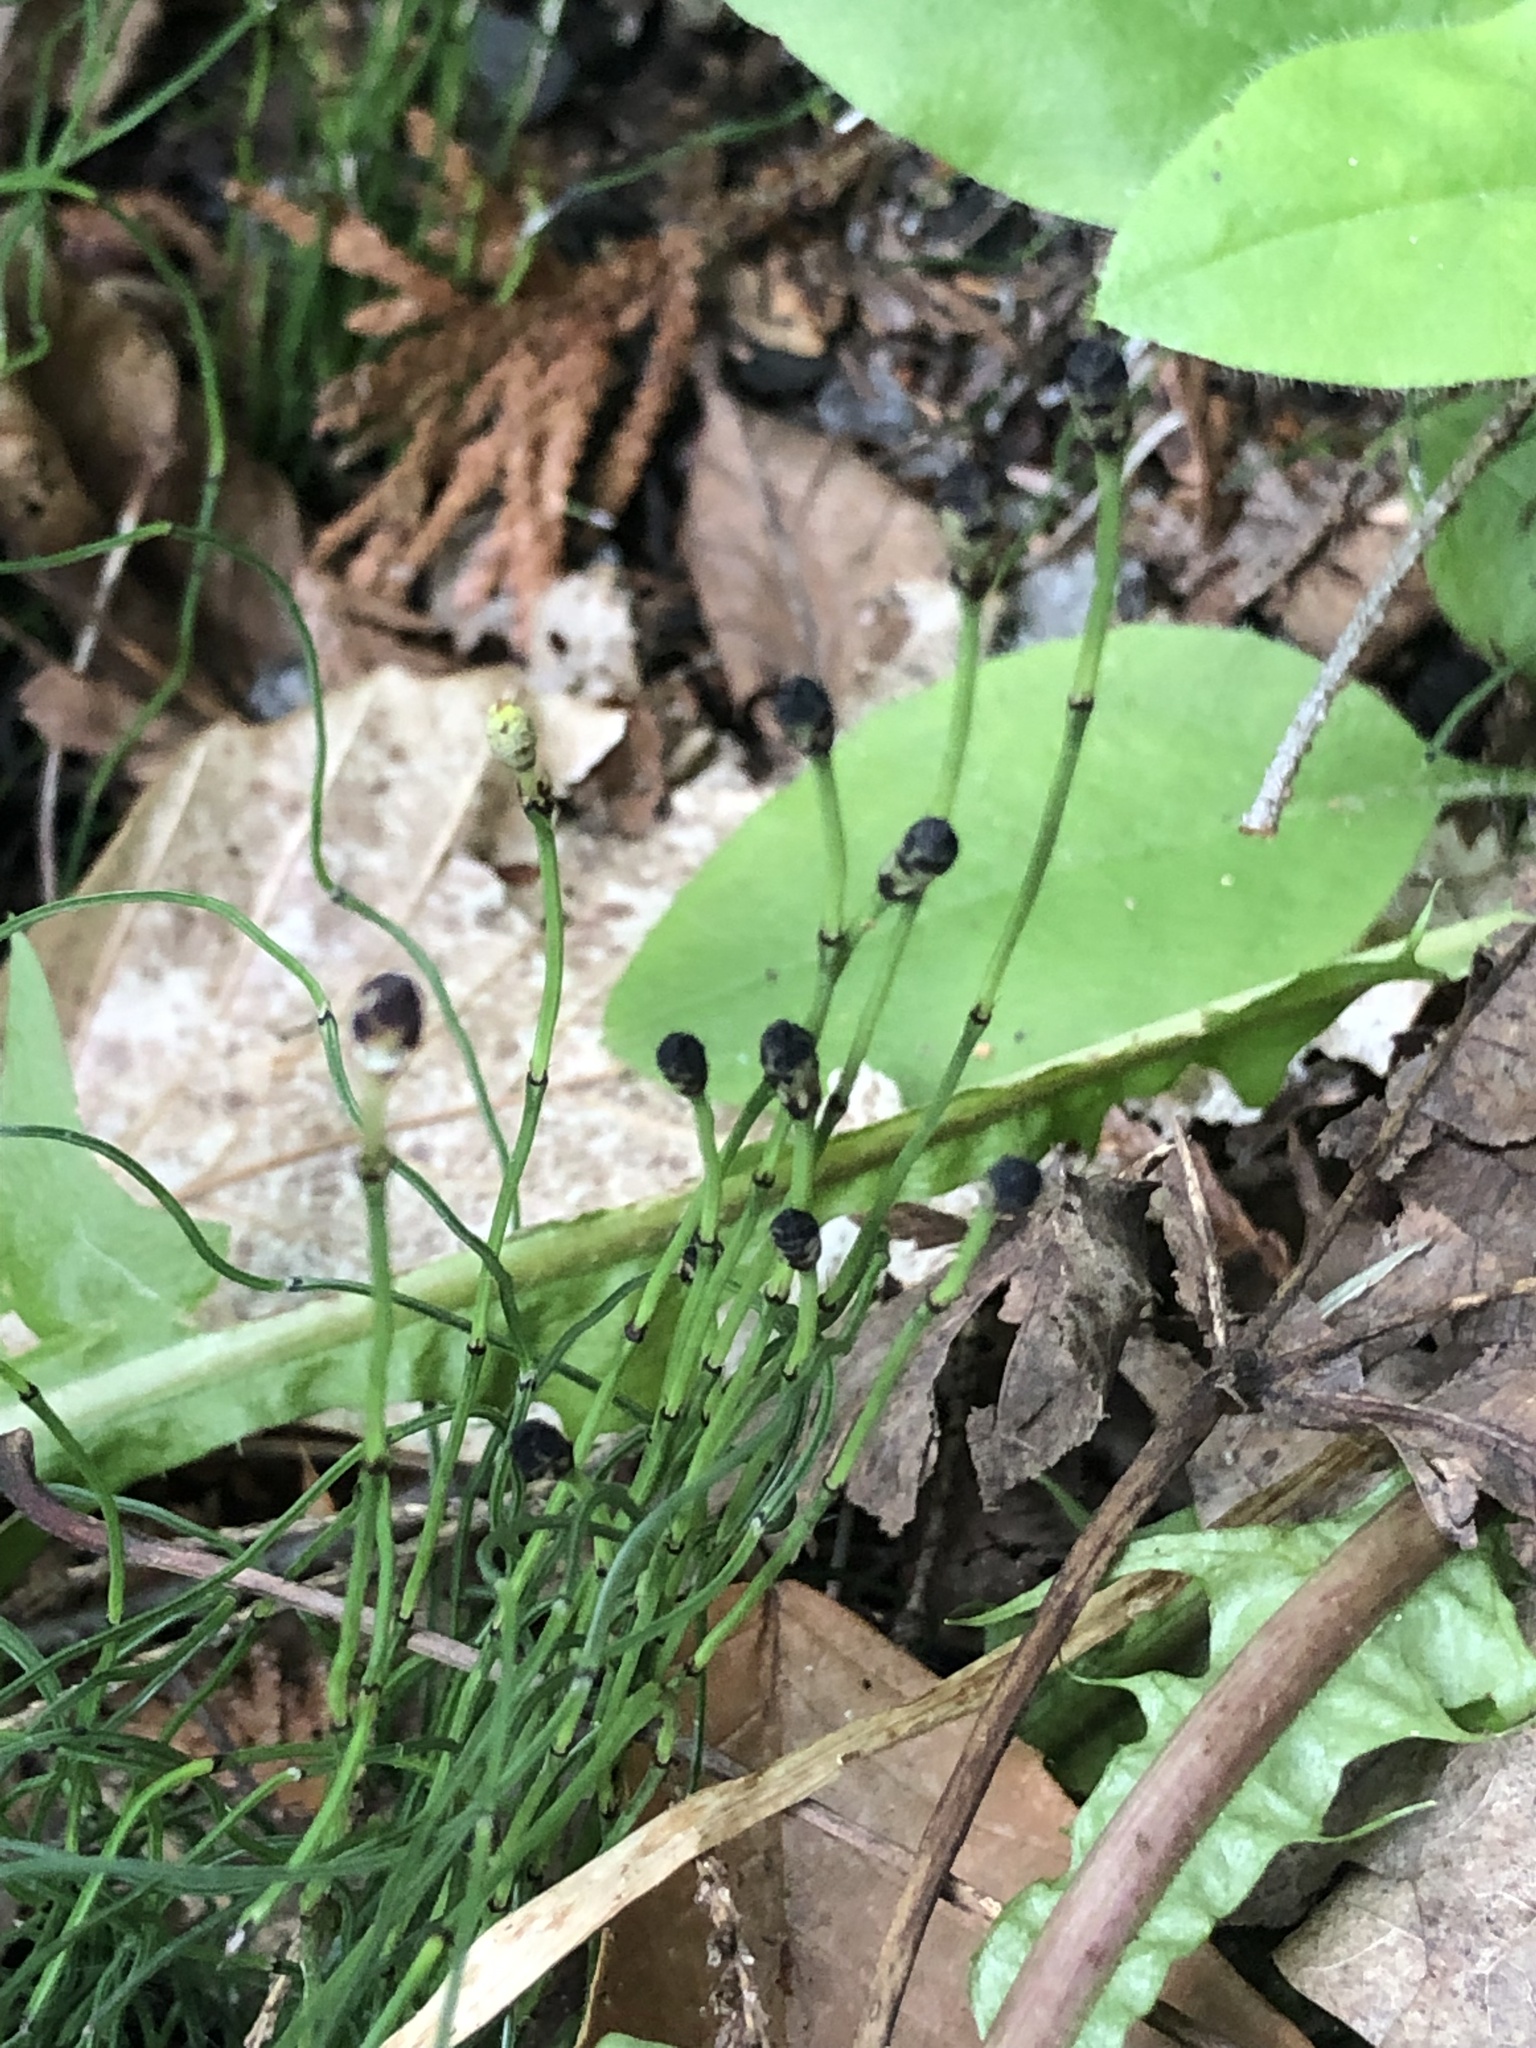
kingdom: Plantae
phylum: Tracheophyta
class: Polypodiopsida
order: Equisetales
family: Equisetaceae
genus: Equisetum
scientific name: Equisetum scirpoides
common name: Delicate horsetail
